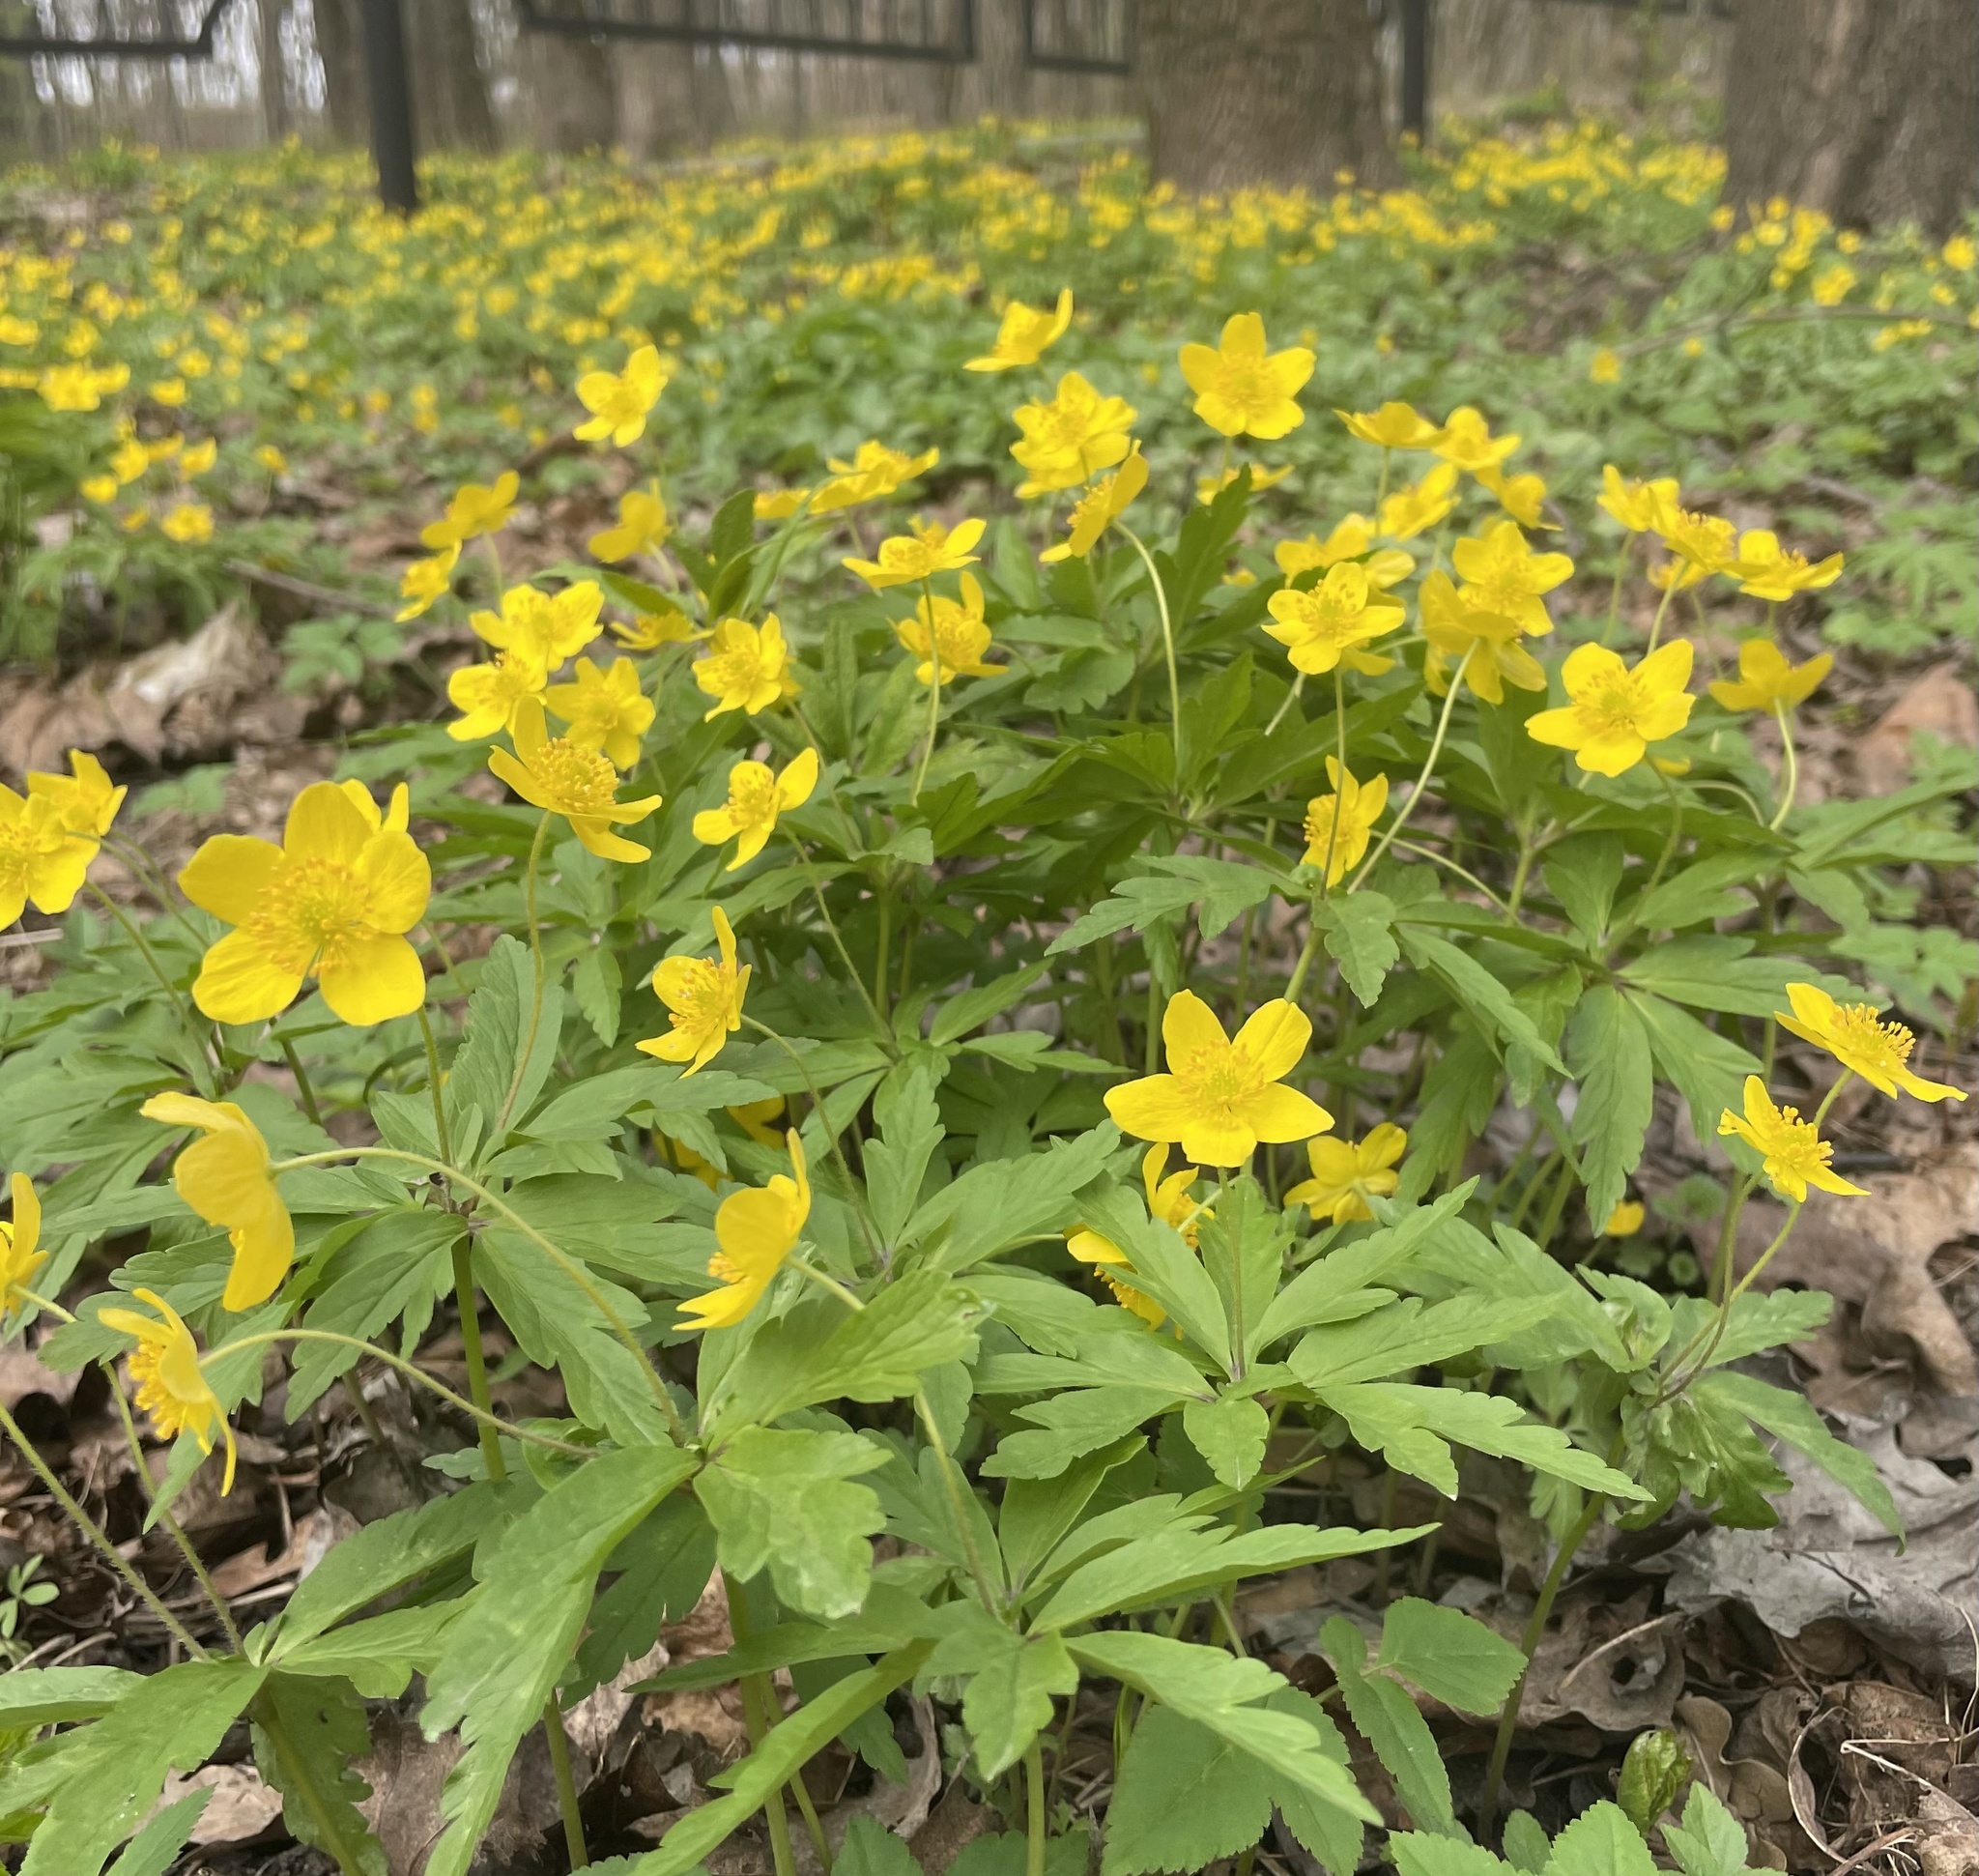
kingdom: Plantae
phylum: Tracheophyta
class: Magnoliopsida
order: Ranunculales
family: Ranunculaceae
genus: Anemone
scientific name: Anemone ranunculoides
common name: Yellow anemone
